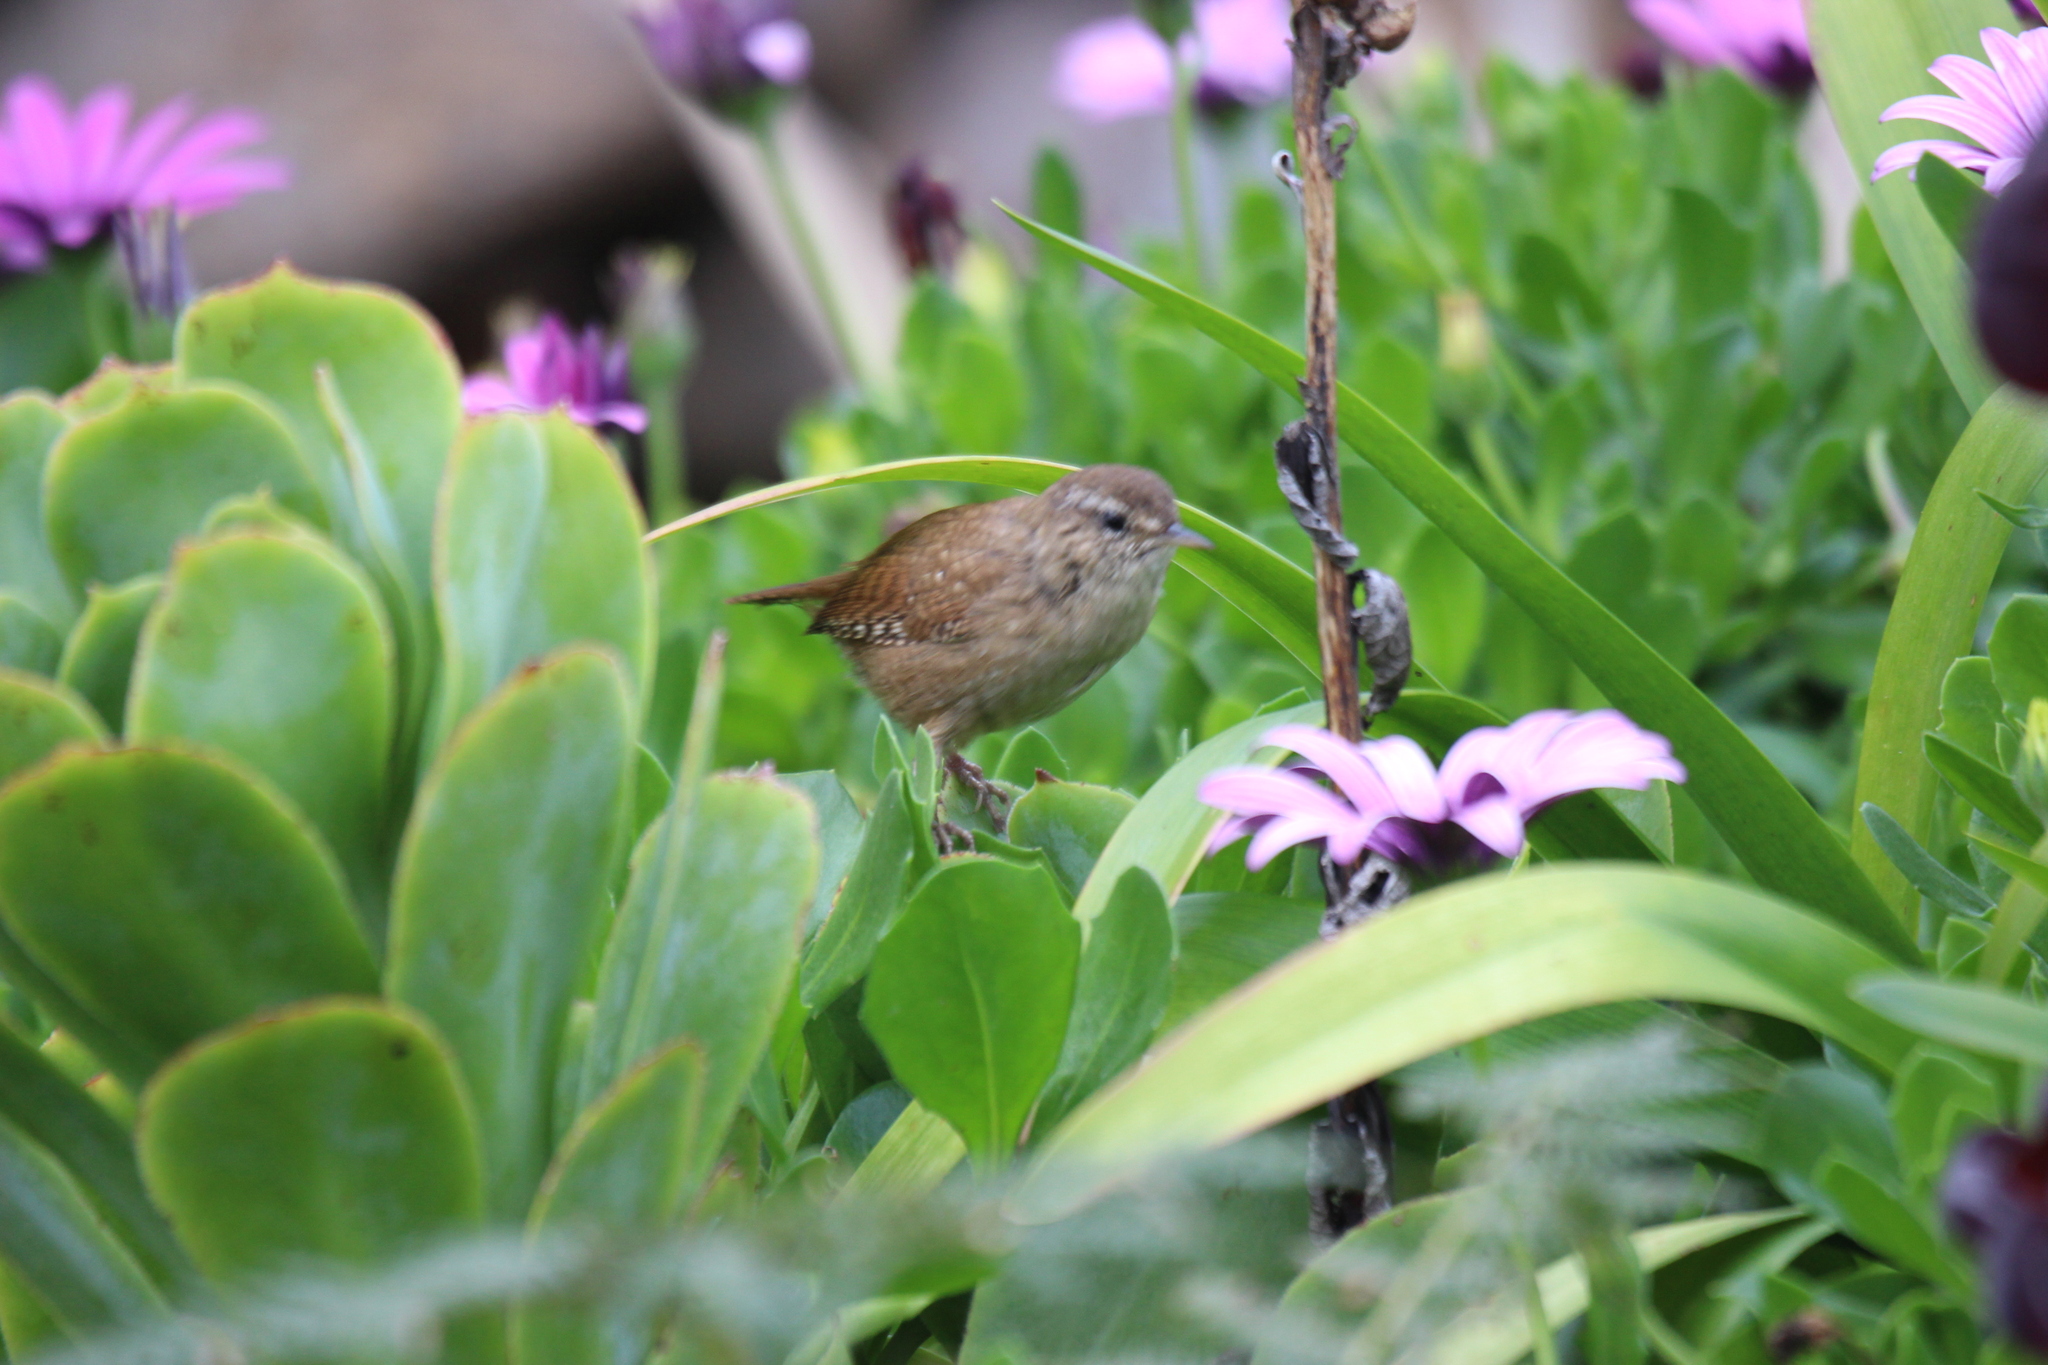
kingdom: Animalia
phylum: Chordata
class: Aves
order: Passeriformes
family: Troglodytidae
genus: Troglodytes
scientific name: Troglodytes troglodytes
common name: Eurasian wren
